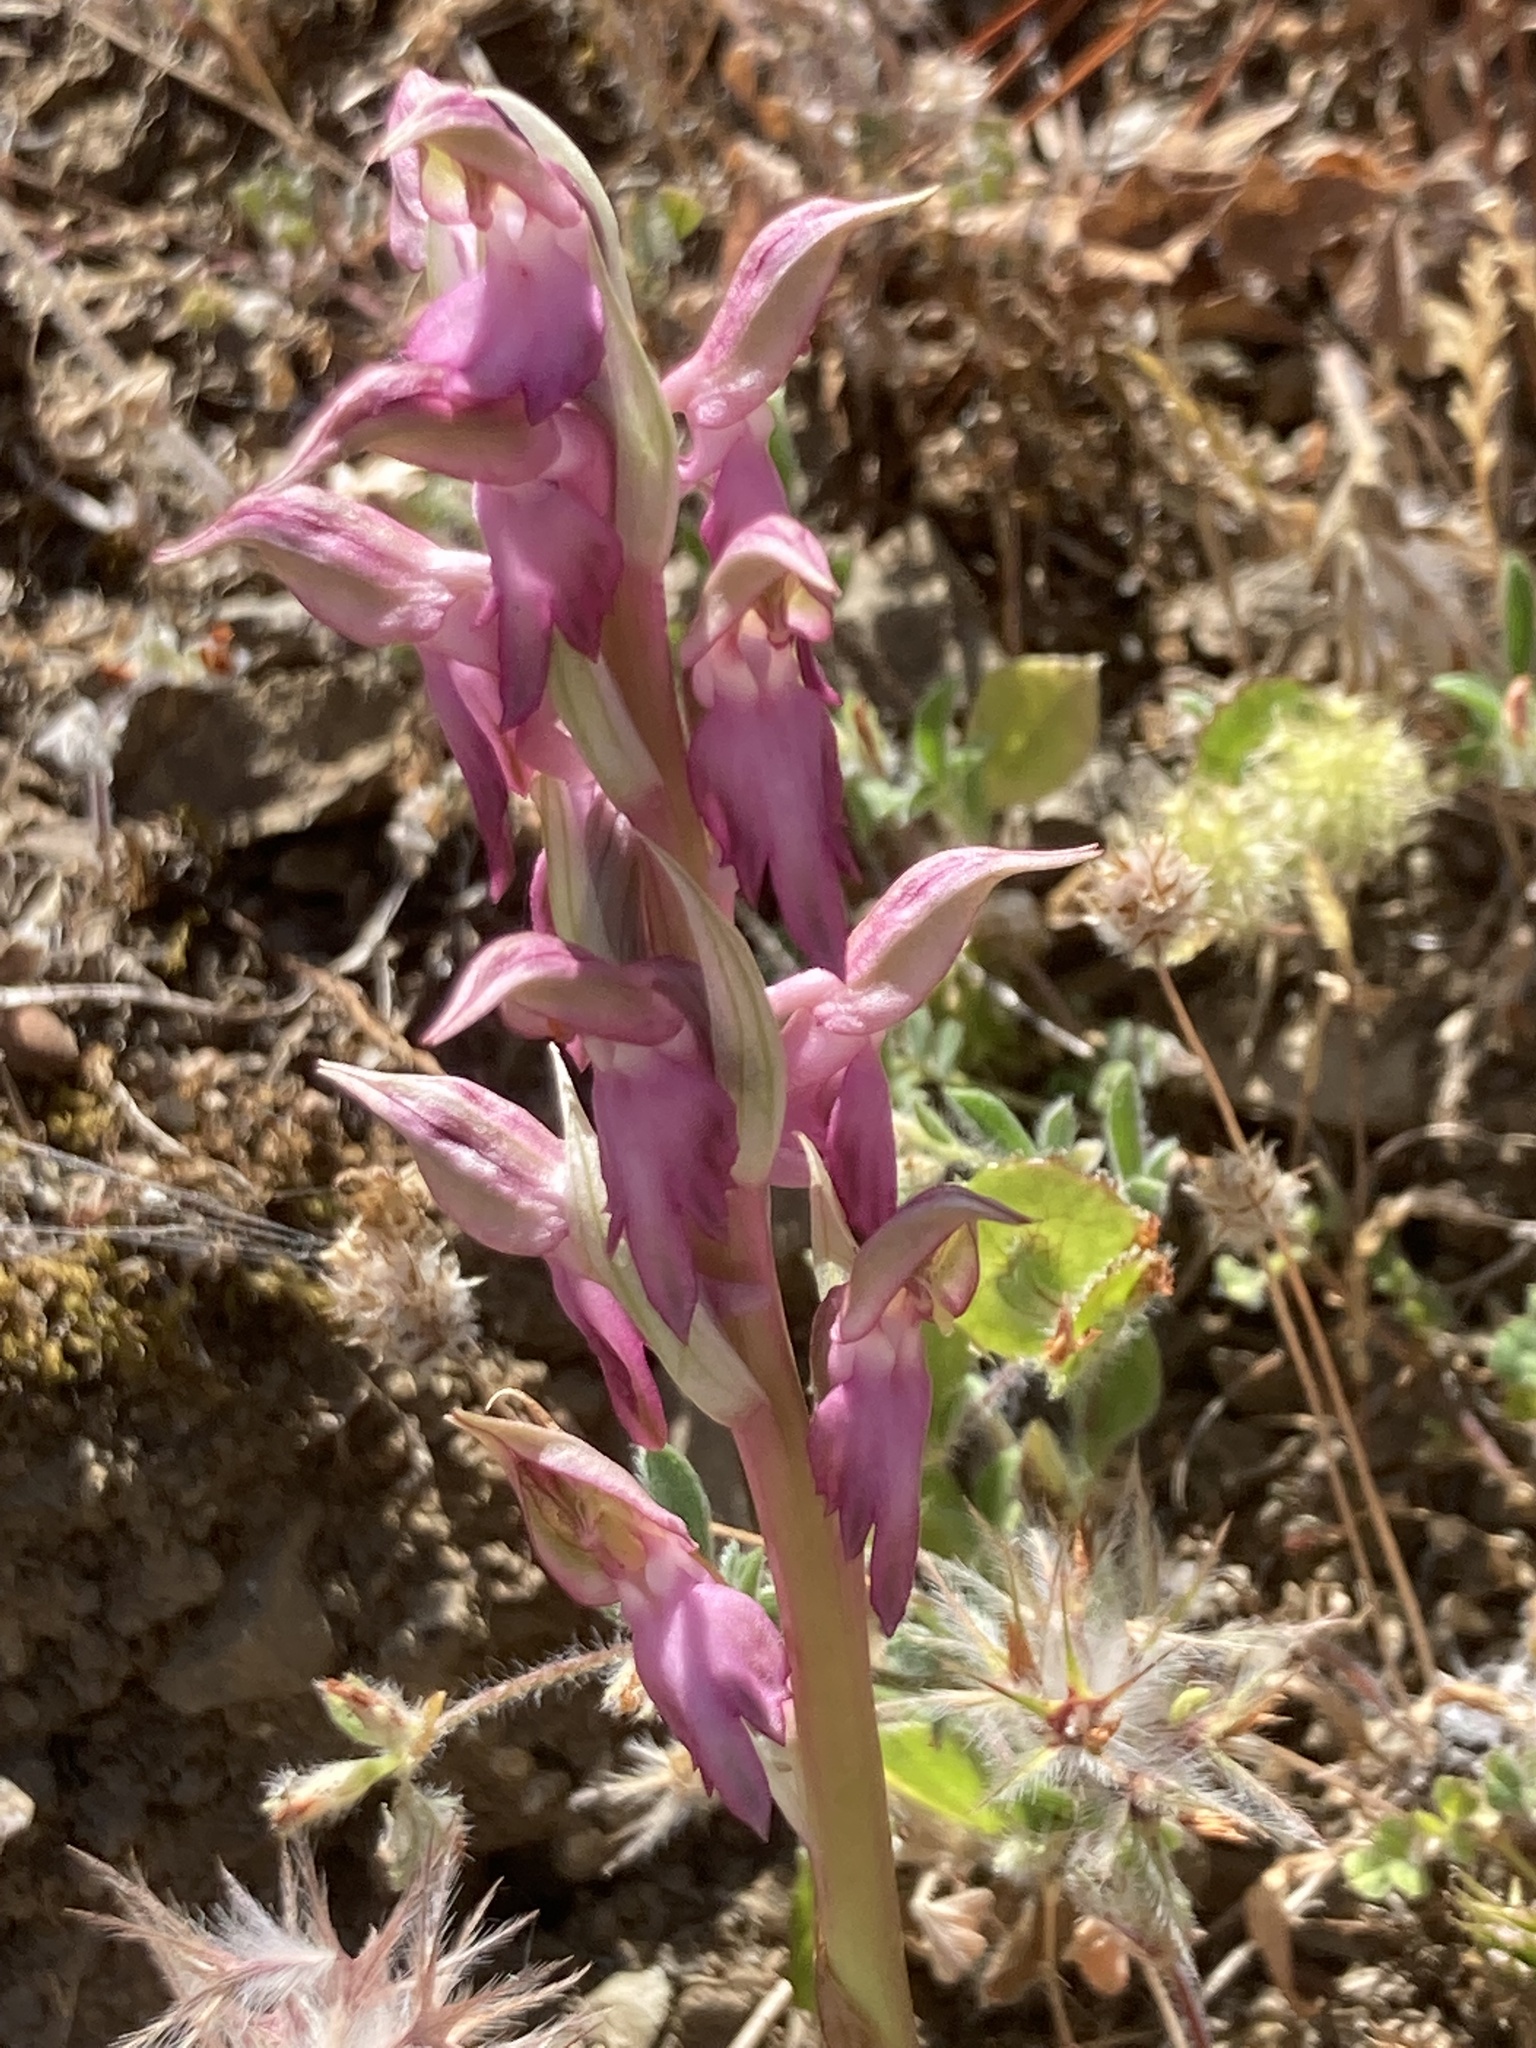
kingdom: Plantae
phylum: Tracheophyta
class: Liliopsida
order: Asparagales
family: Orchidaceae
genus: Anacamptis
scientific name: Anacamptis sancta
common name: Holy orchid
